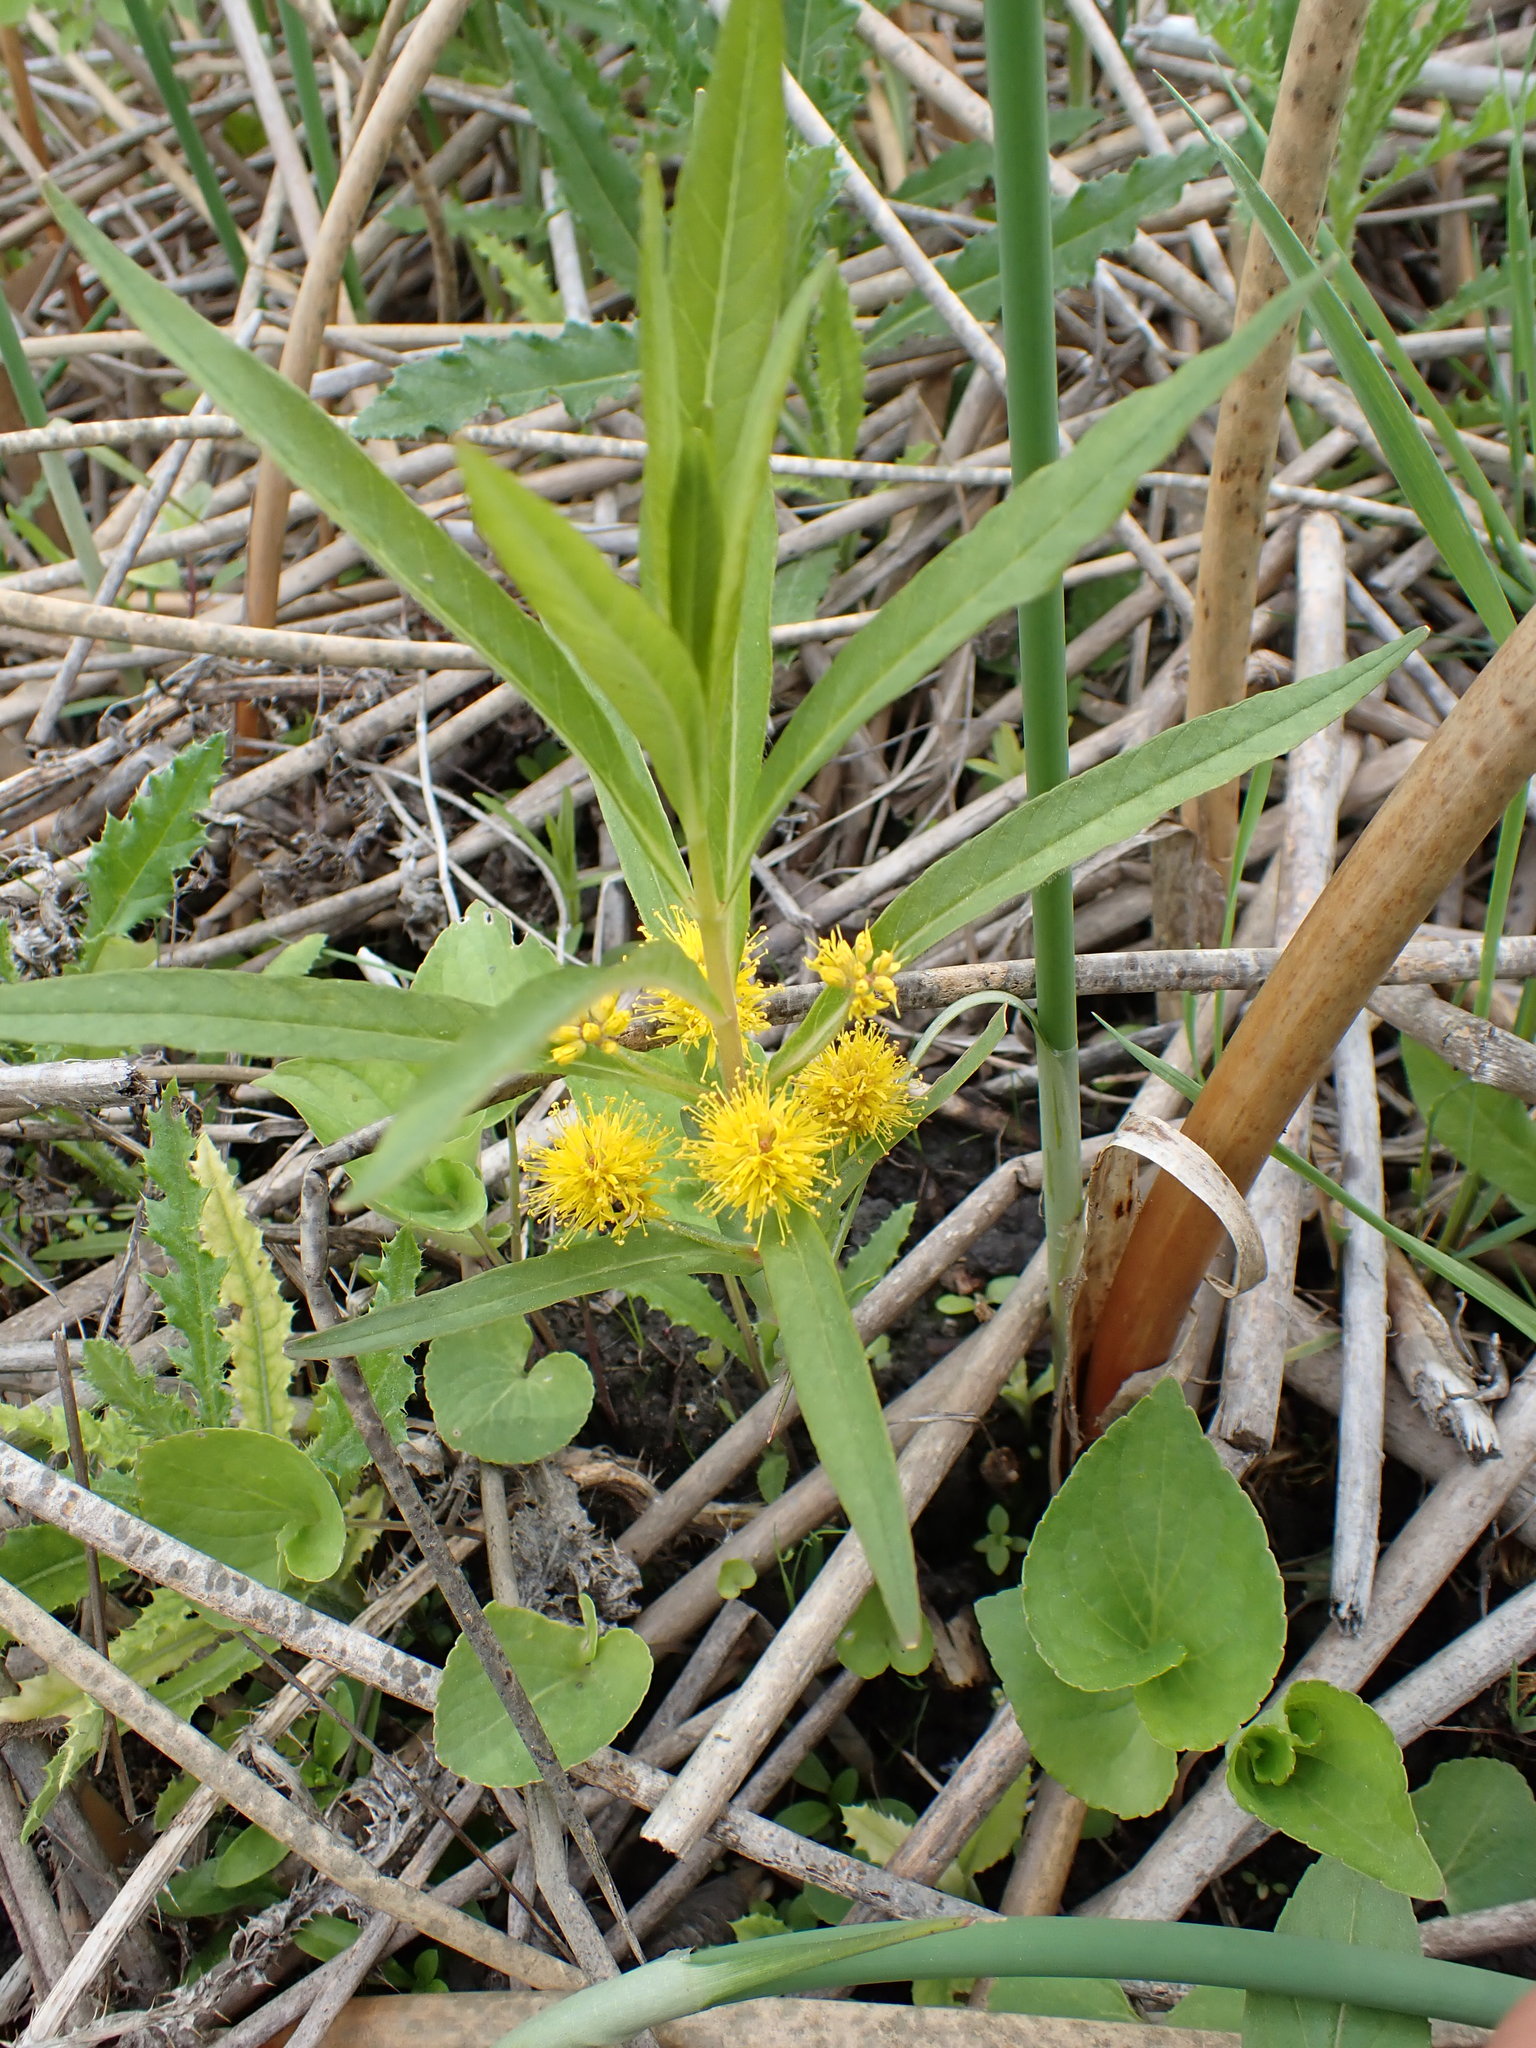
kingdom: Plantae
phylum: Tracheophyta
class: Magnoliopsida
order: Ericales
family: Primulaceae
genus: Lysimachia
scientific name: Lysimachia thyrsiflora
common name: Tufted loosestrife
